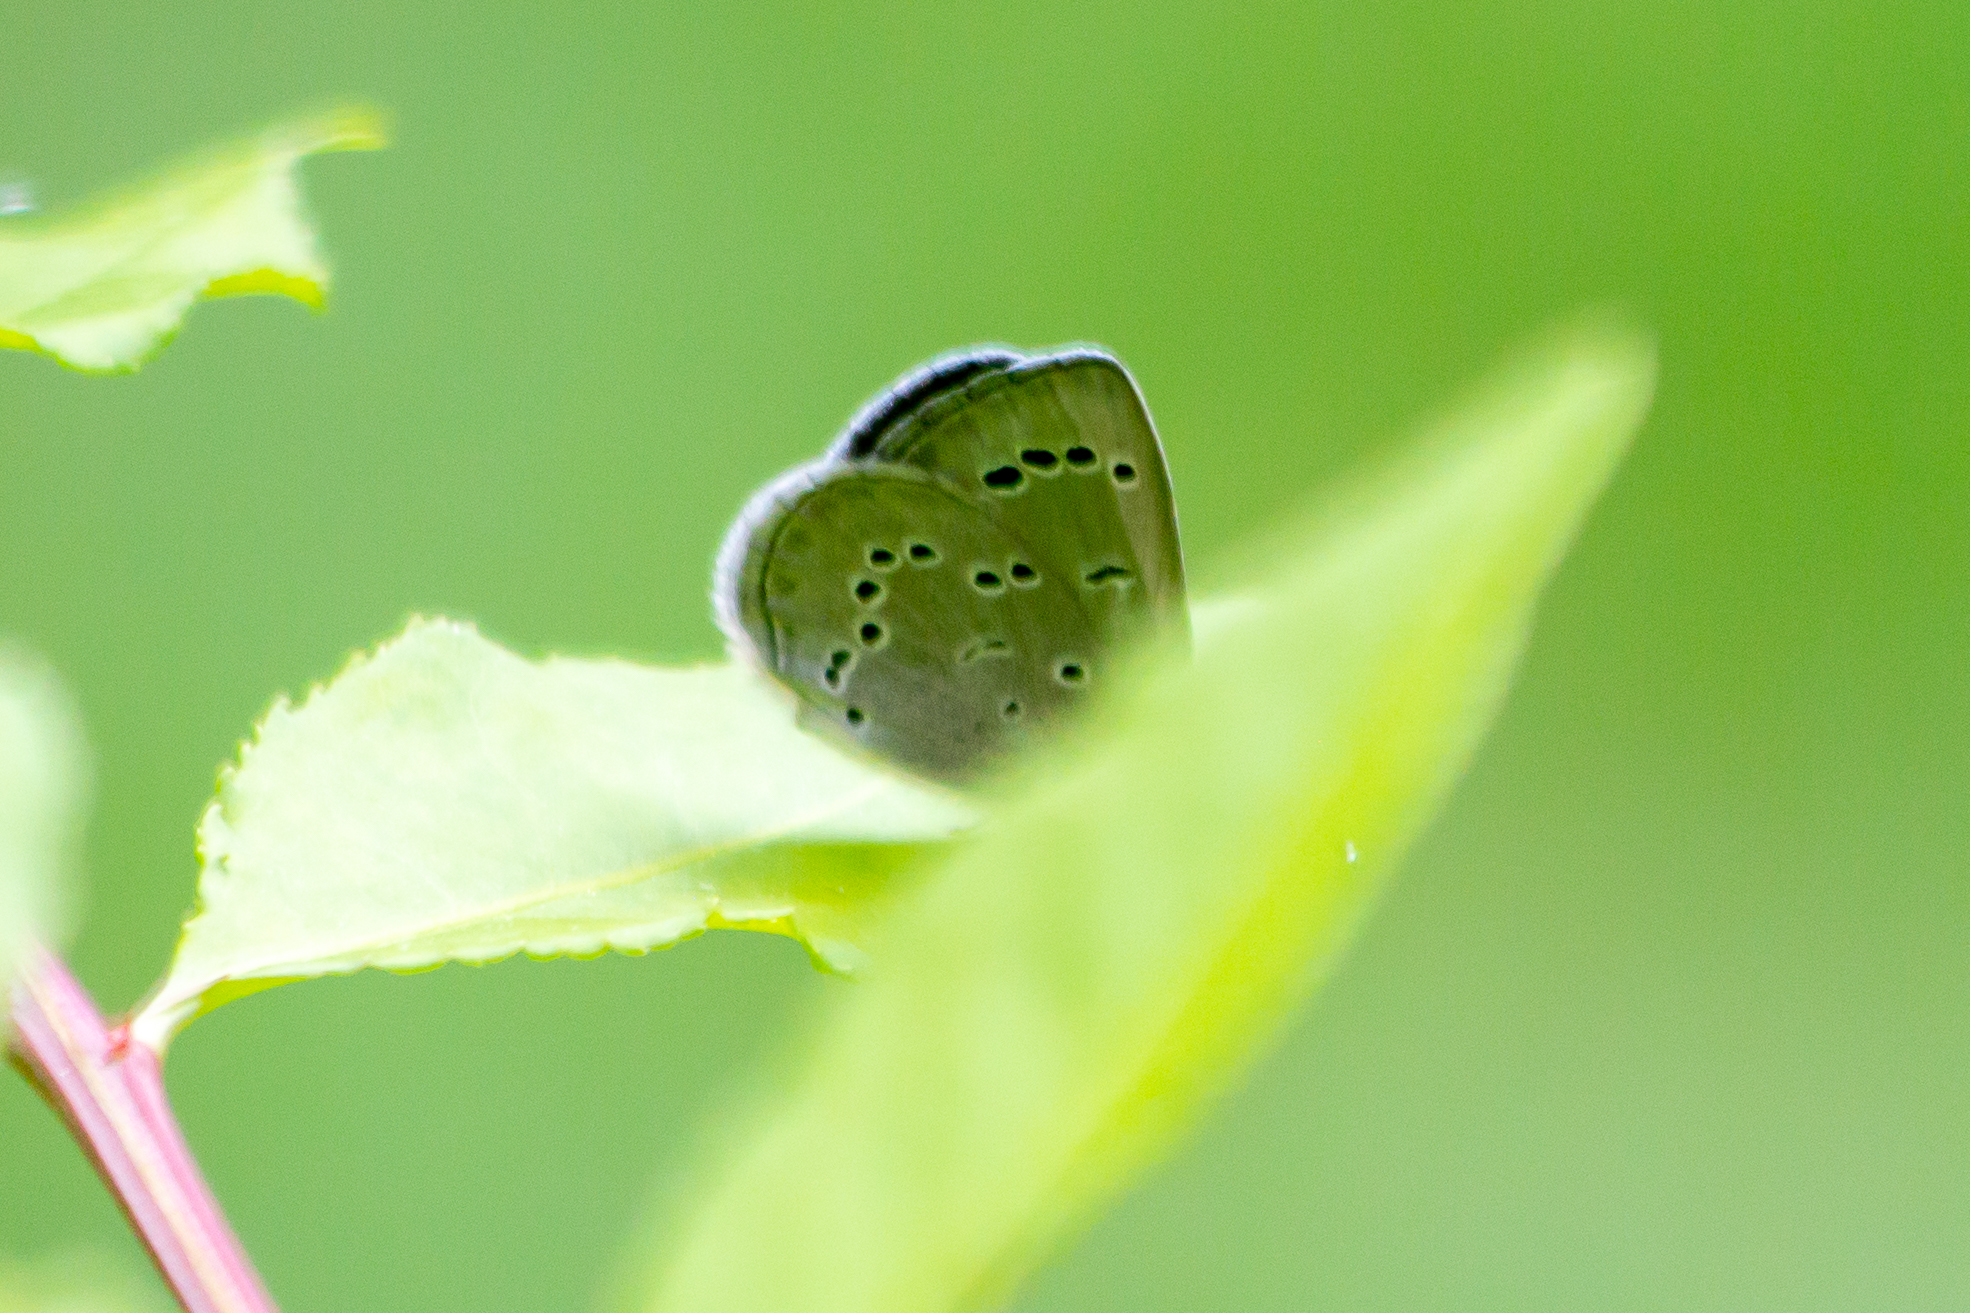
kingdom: Animalia
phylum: Arthropoda
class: Insecta
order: Lepidoptera
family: Lycaenidae
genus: Glaucopsyche
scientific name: Glaucopsyche lygdamus
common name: Silvery blue
